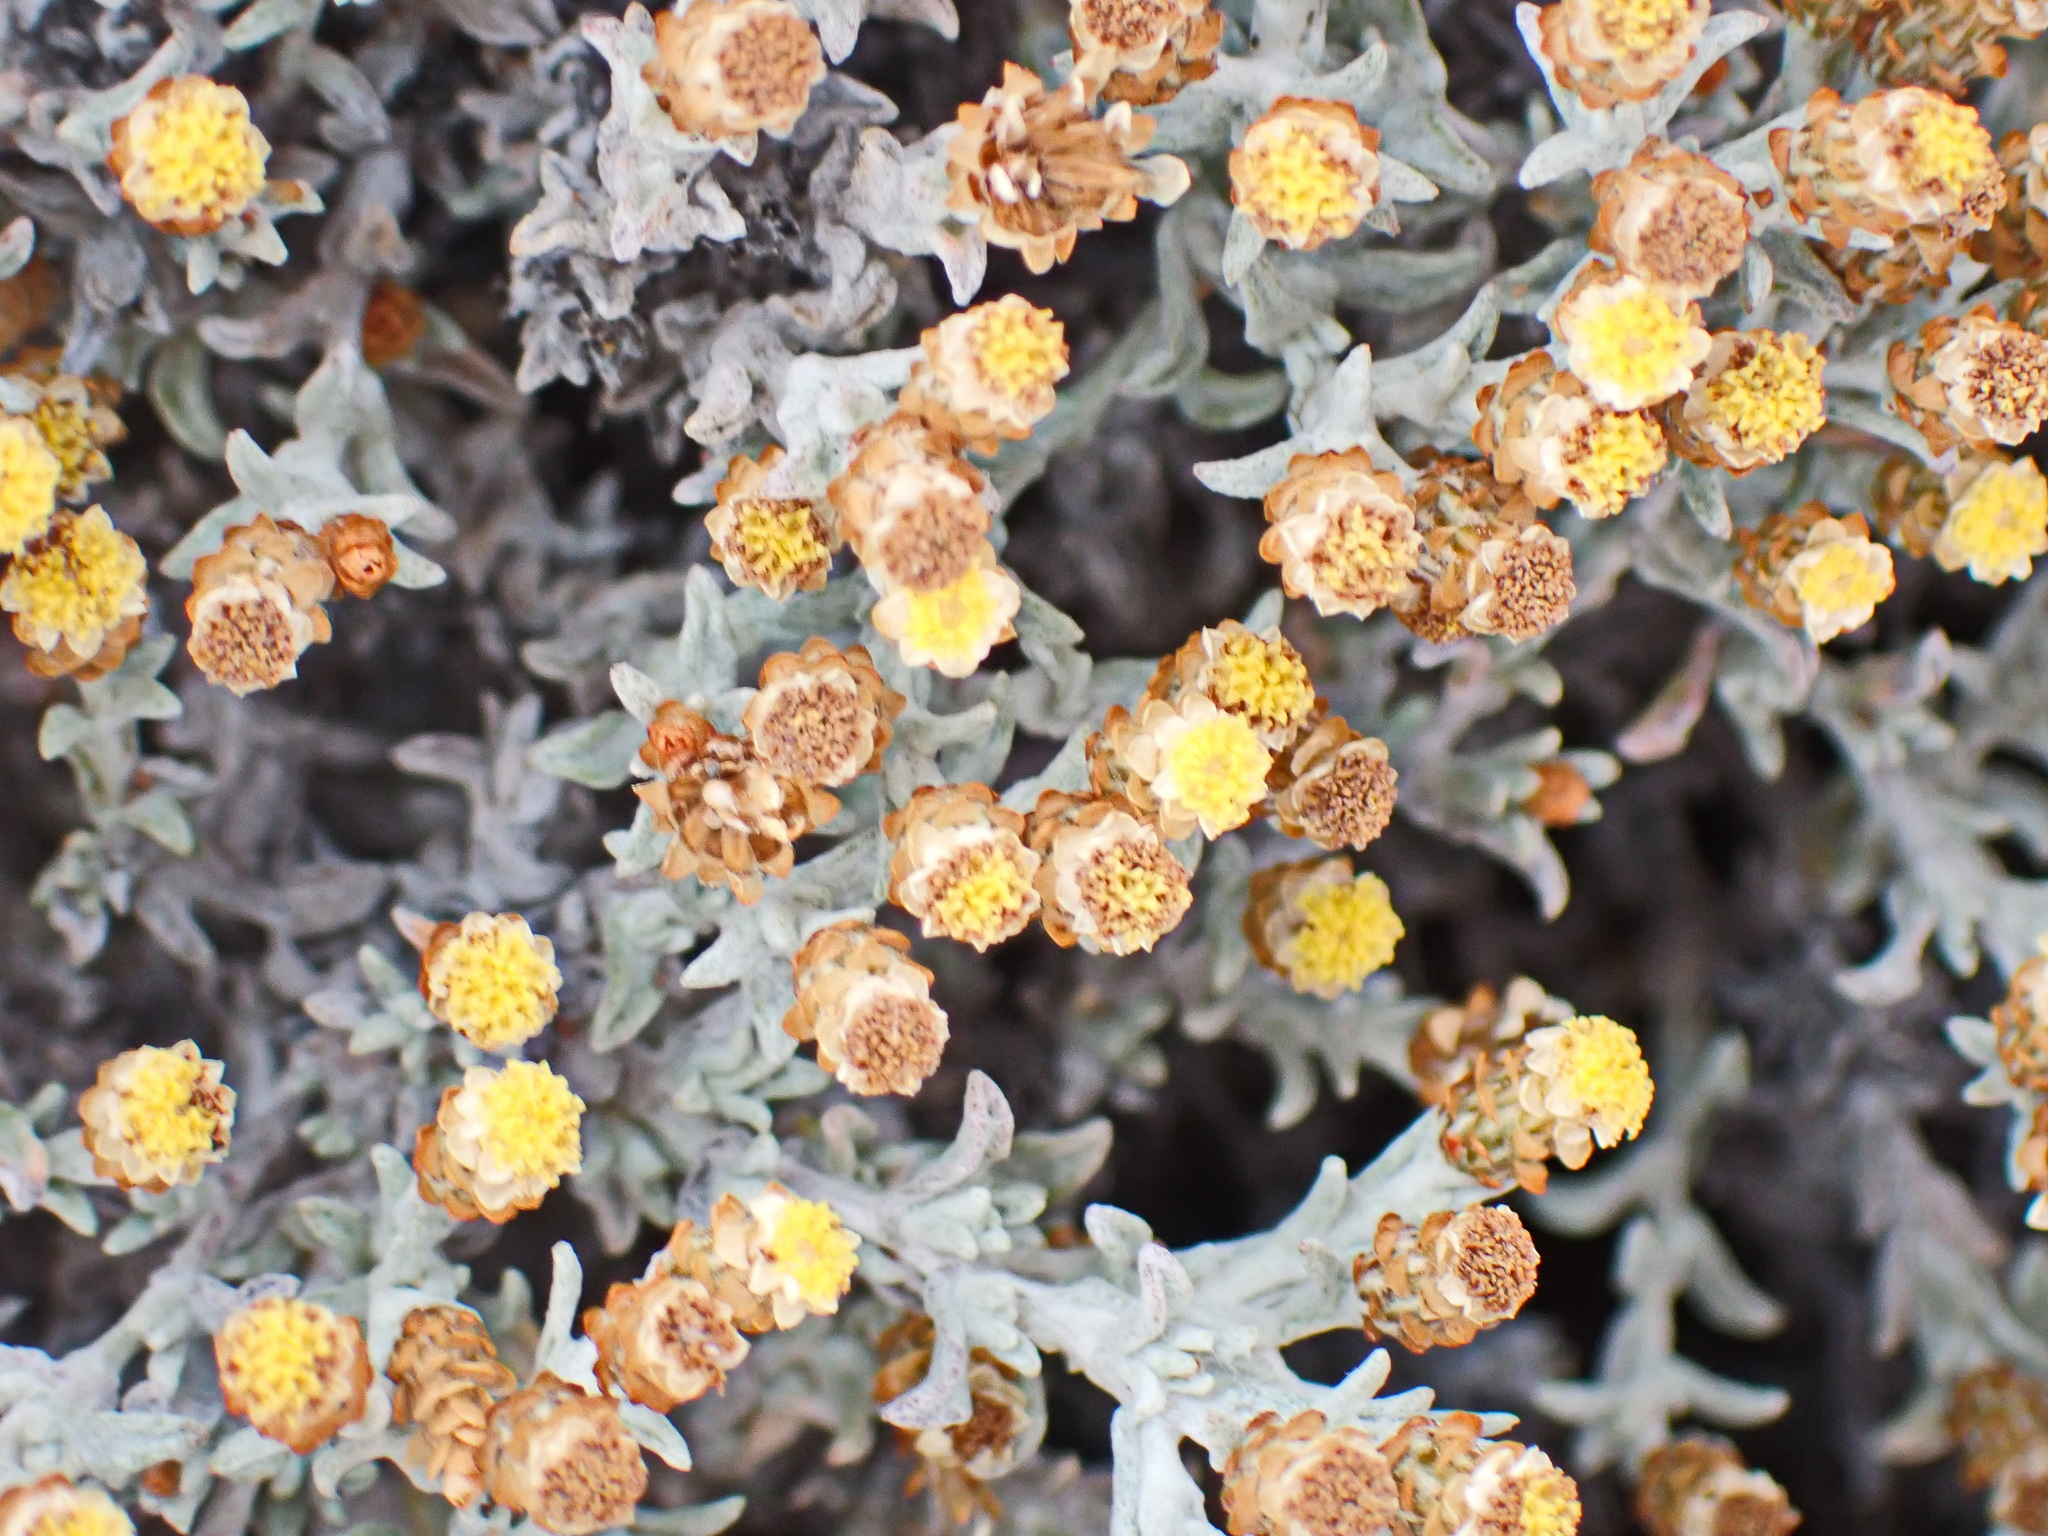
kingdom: Plantae
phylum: Tracheophyta
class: Magnoliopsida
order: Asterales
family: Asteraceae
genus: Helichrysum
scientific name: Helichrysum tinctum
